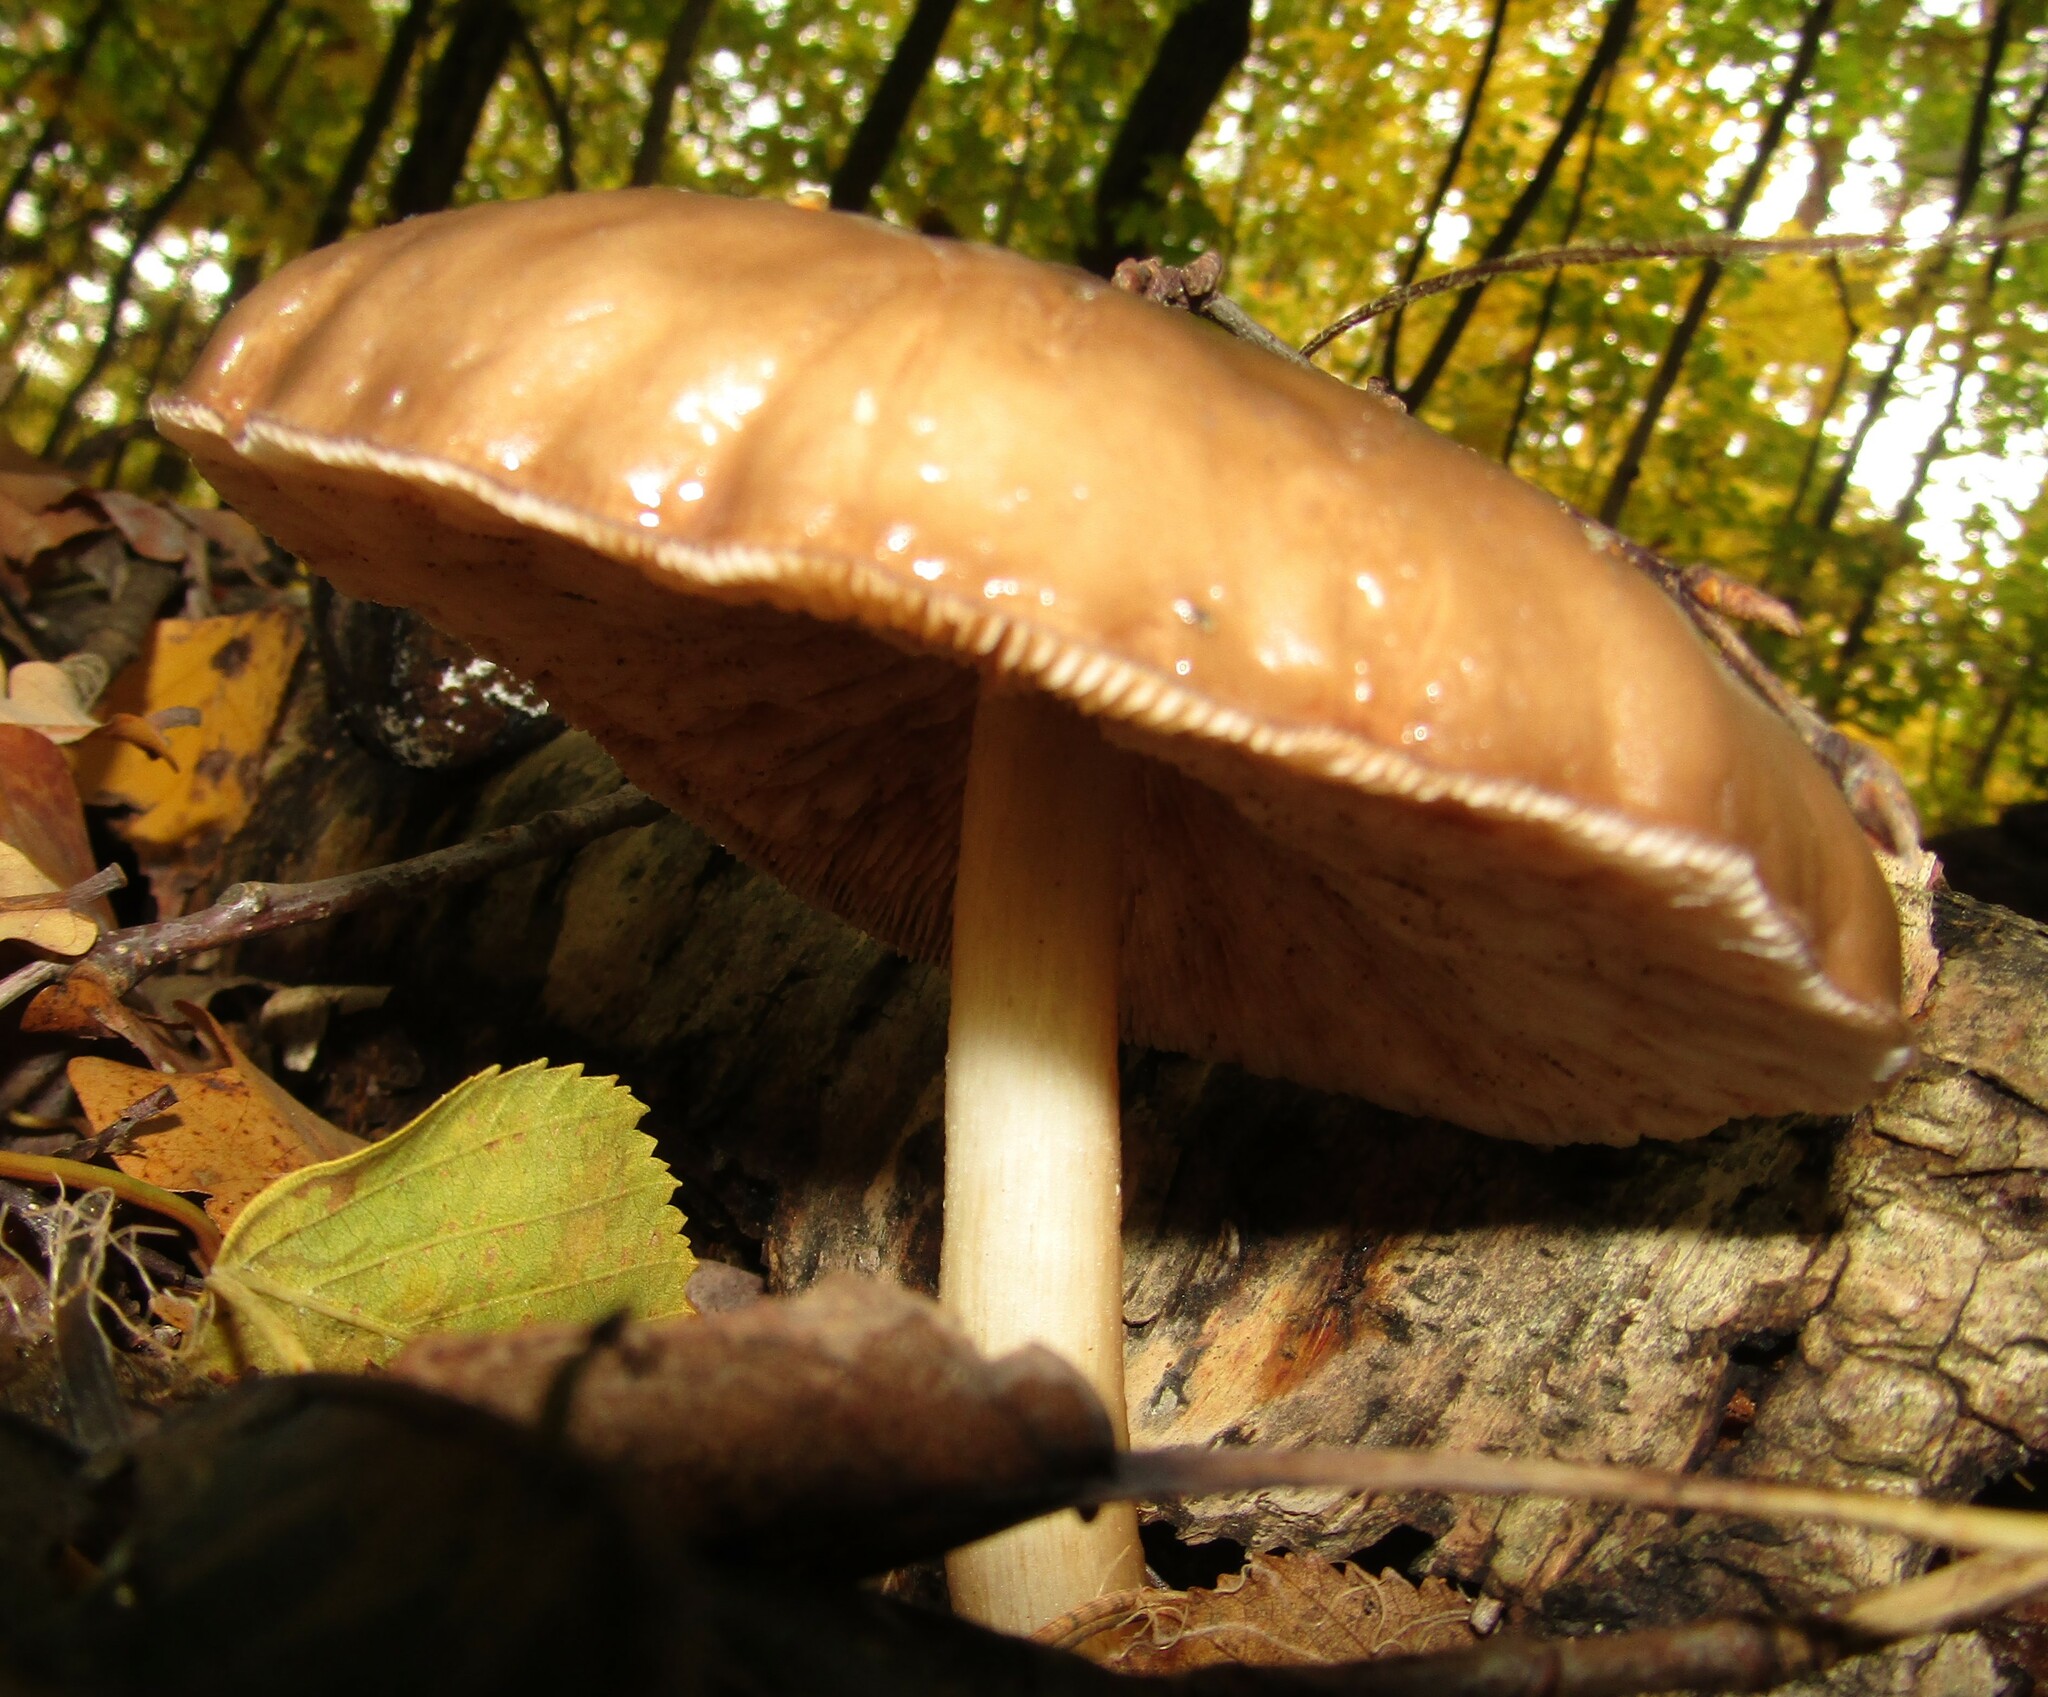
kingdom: Fungi
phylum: Basidiomycota
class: Agaricomycetes
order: Agaricales
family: Pluteaceae
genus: Pluteus
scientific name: Pluteus cervinus
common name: Deer shield
